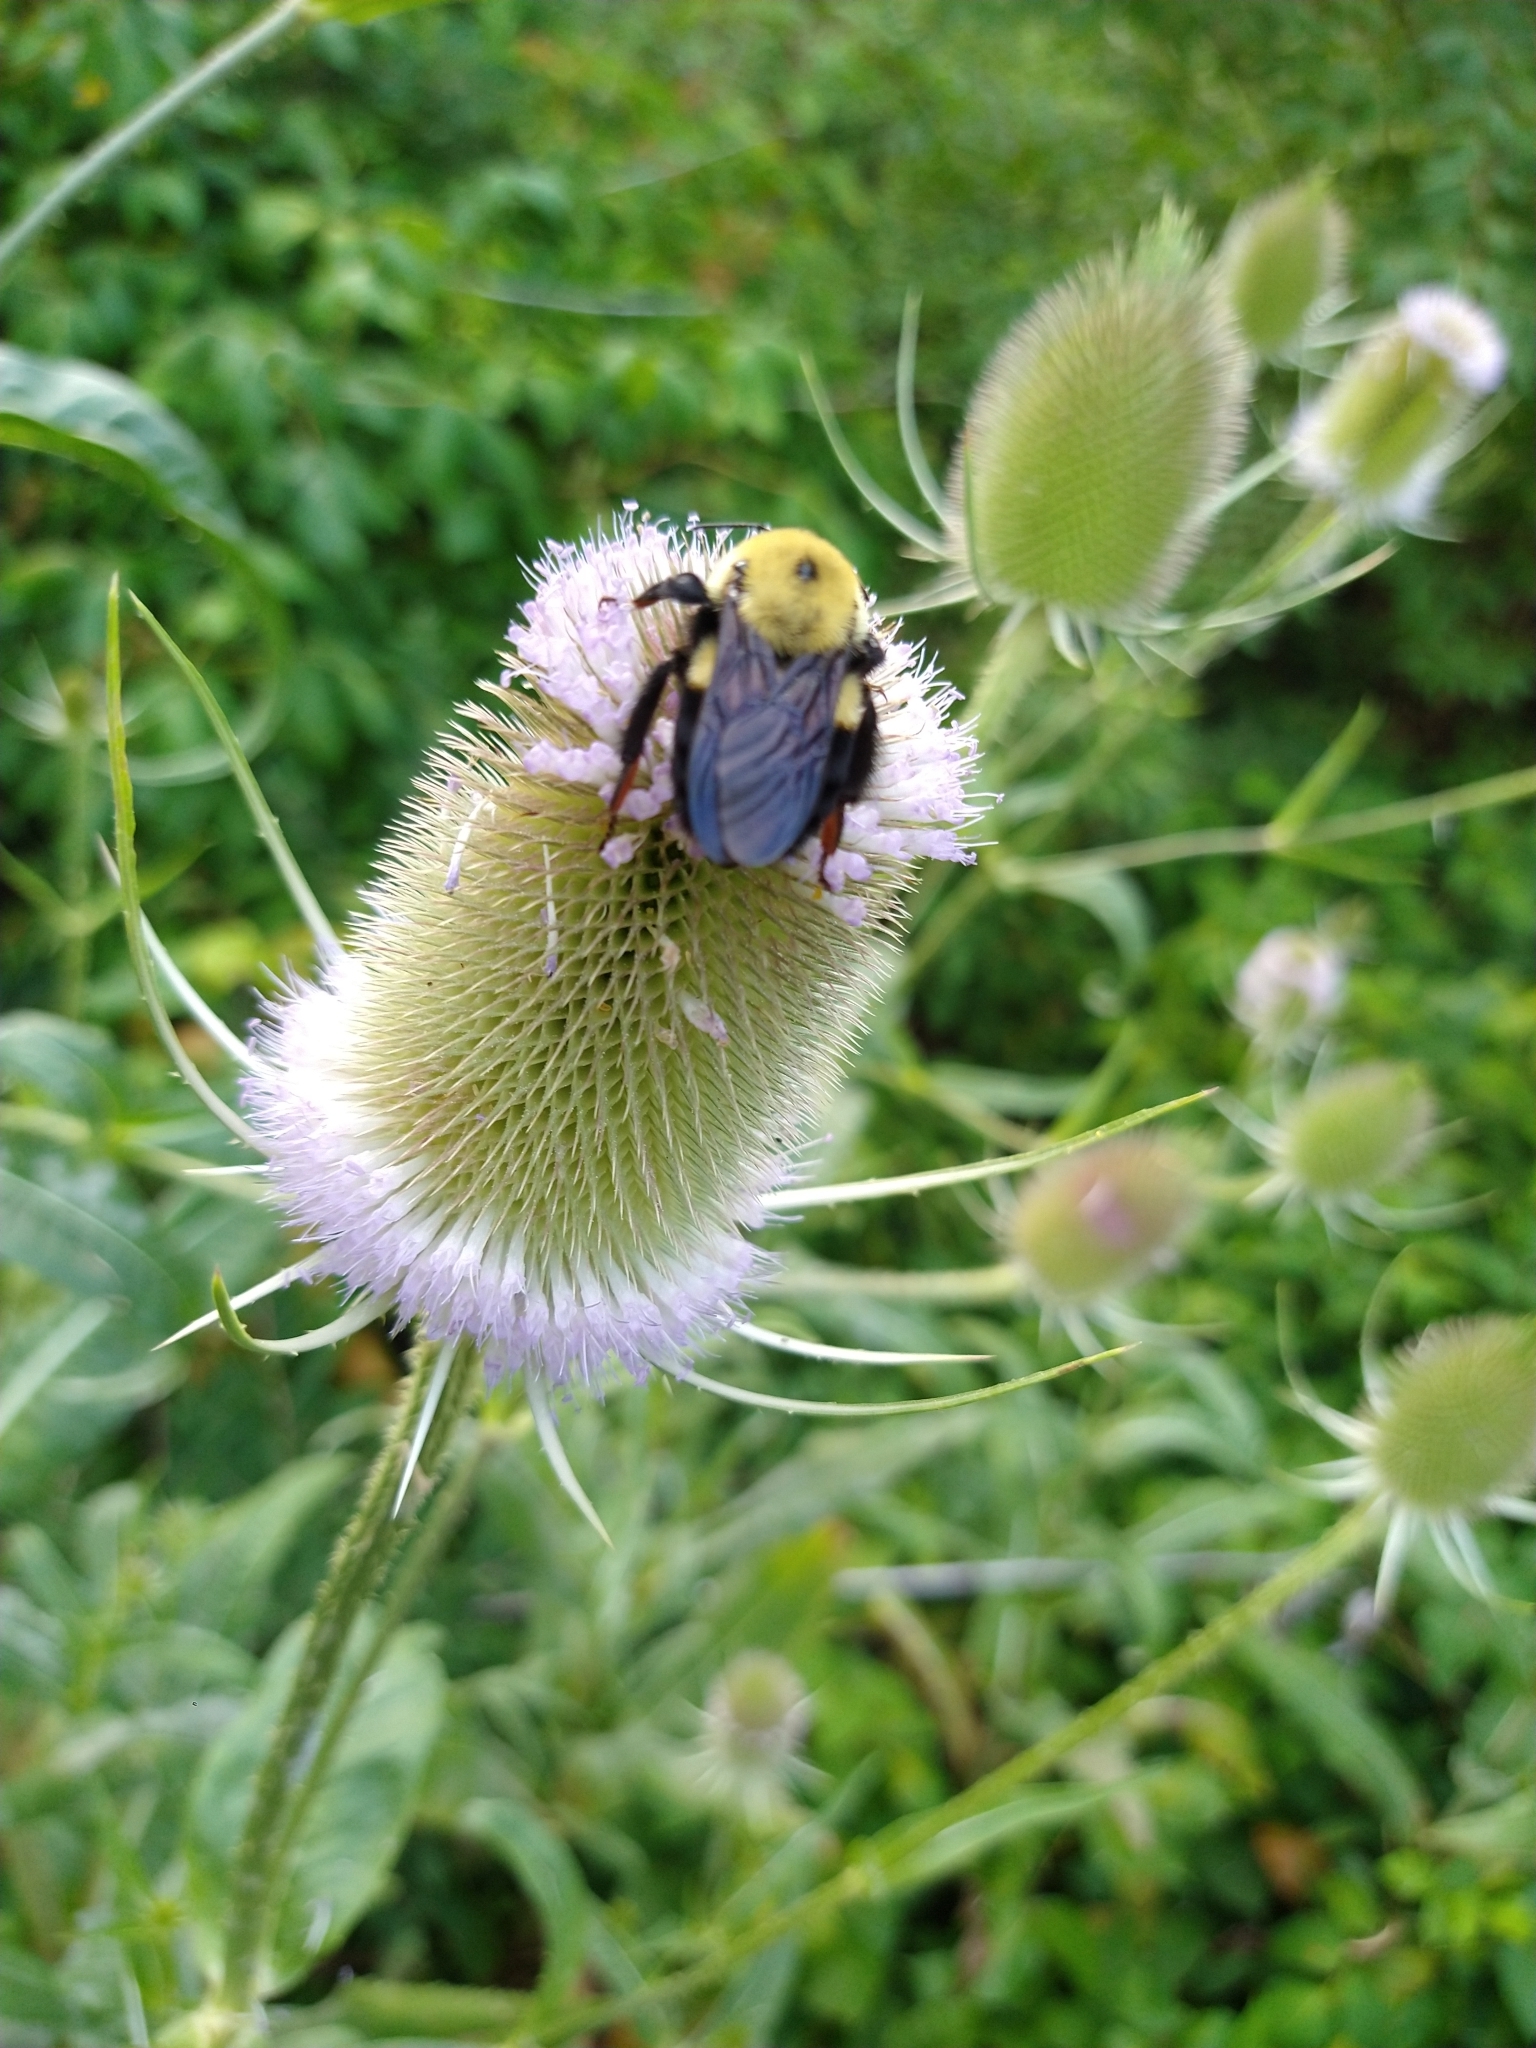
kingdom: Animalia
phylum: Arthropoda
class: Insecta
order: Hymenoptera
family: Apidae
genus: Bombus
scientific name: Bombus griseocollis
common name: Brown-belted bumble bee
